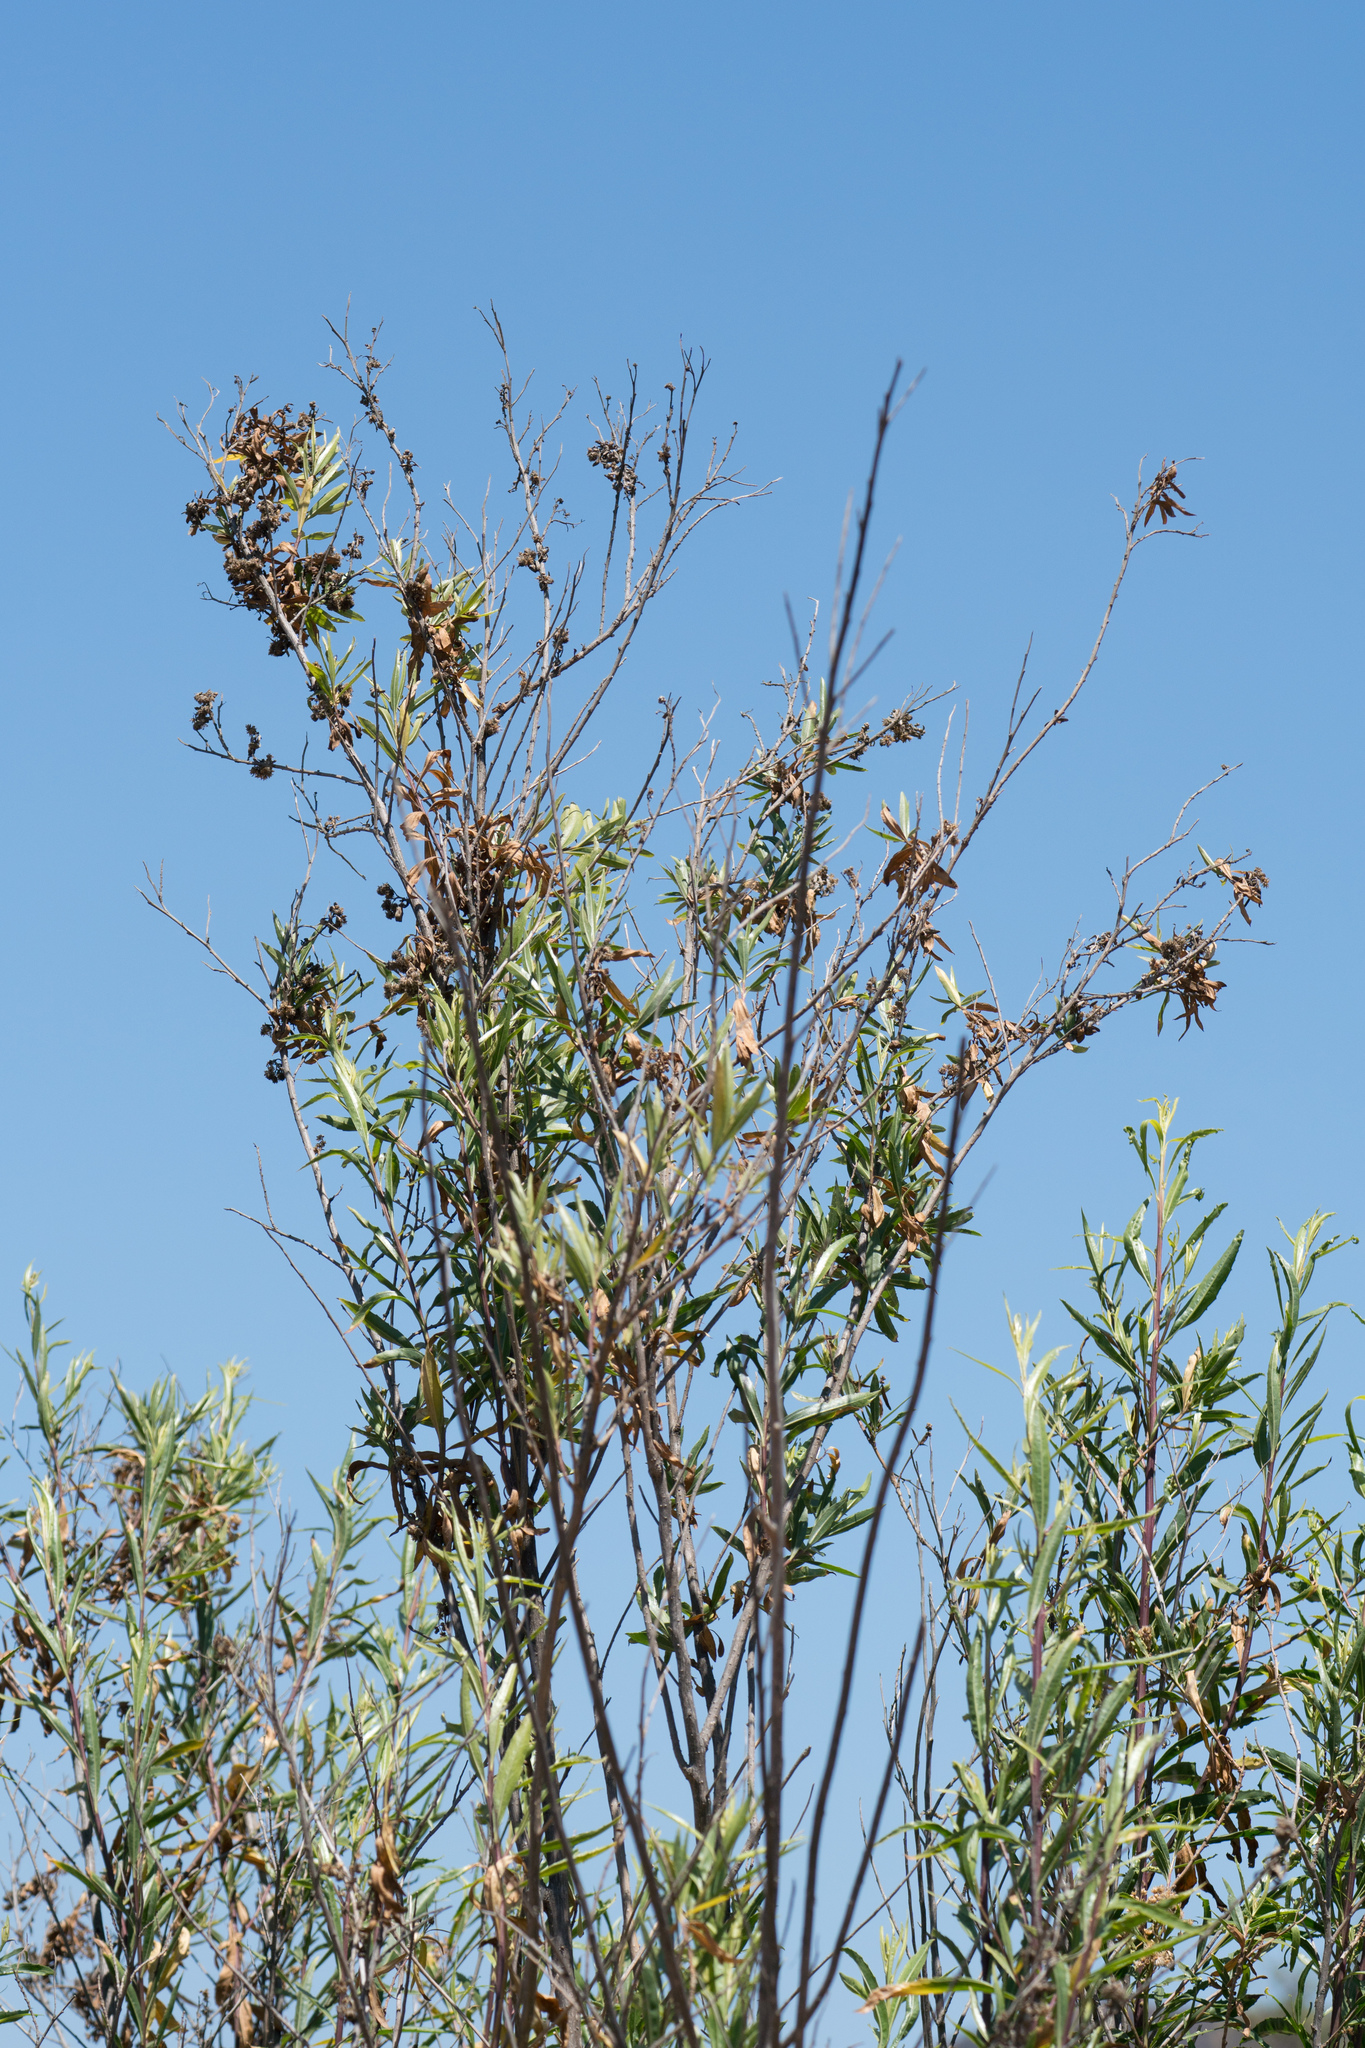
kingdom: Plantae
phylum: Tracheophyta
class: Magnoliopsida
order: Asterales
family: Asteraceae
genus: Baccharis
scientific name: Baccharis salicifolia
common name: Sticky baccharis
